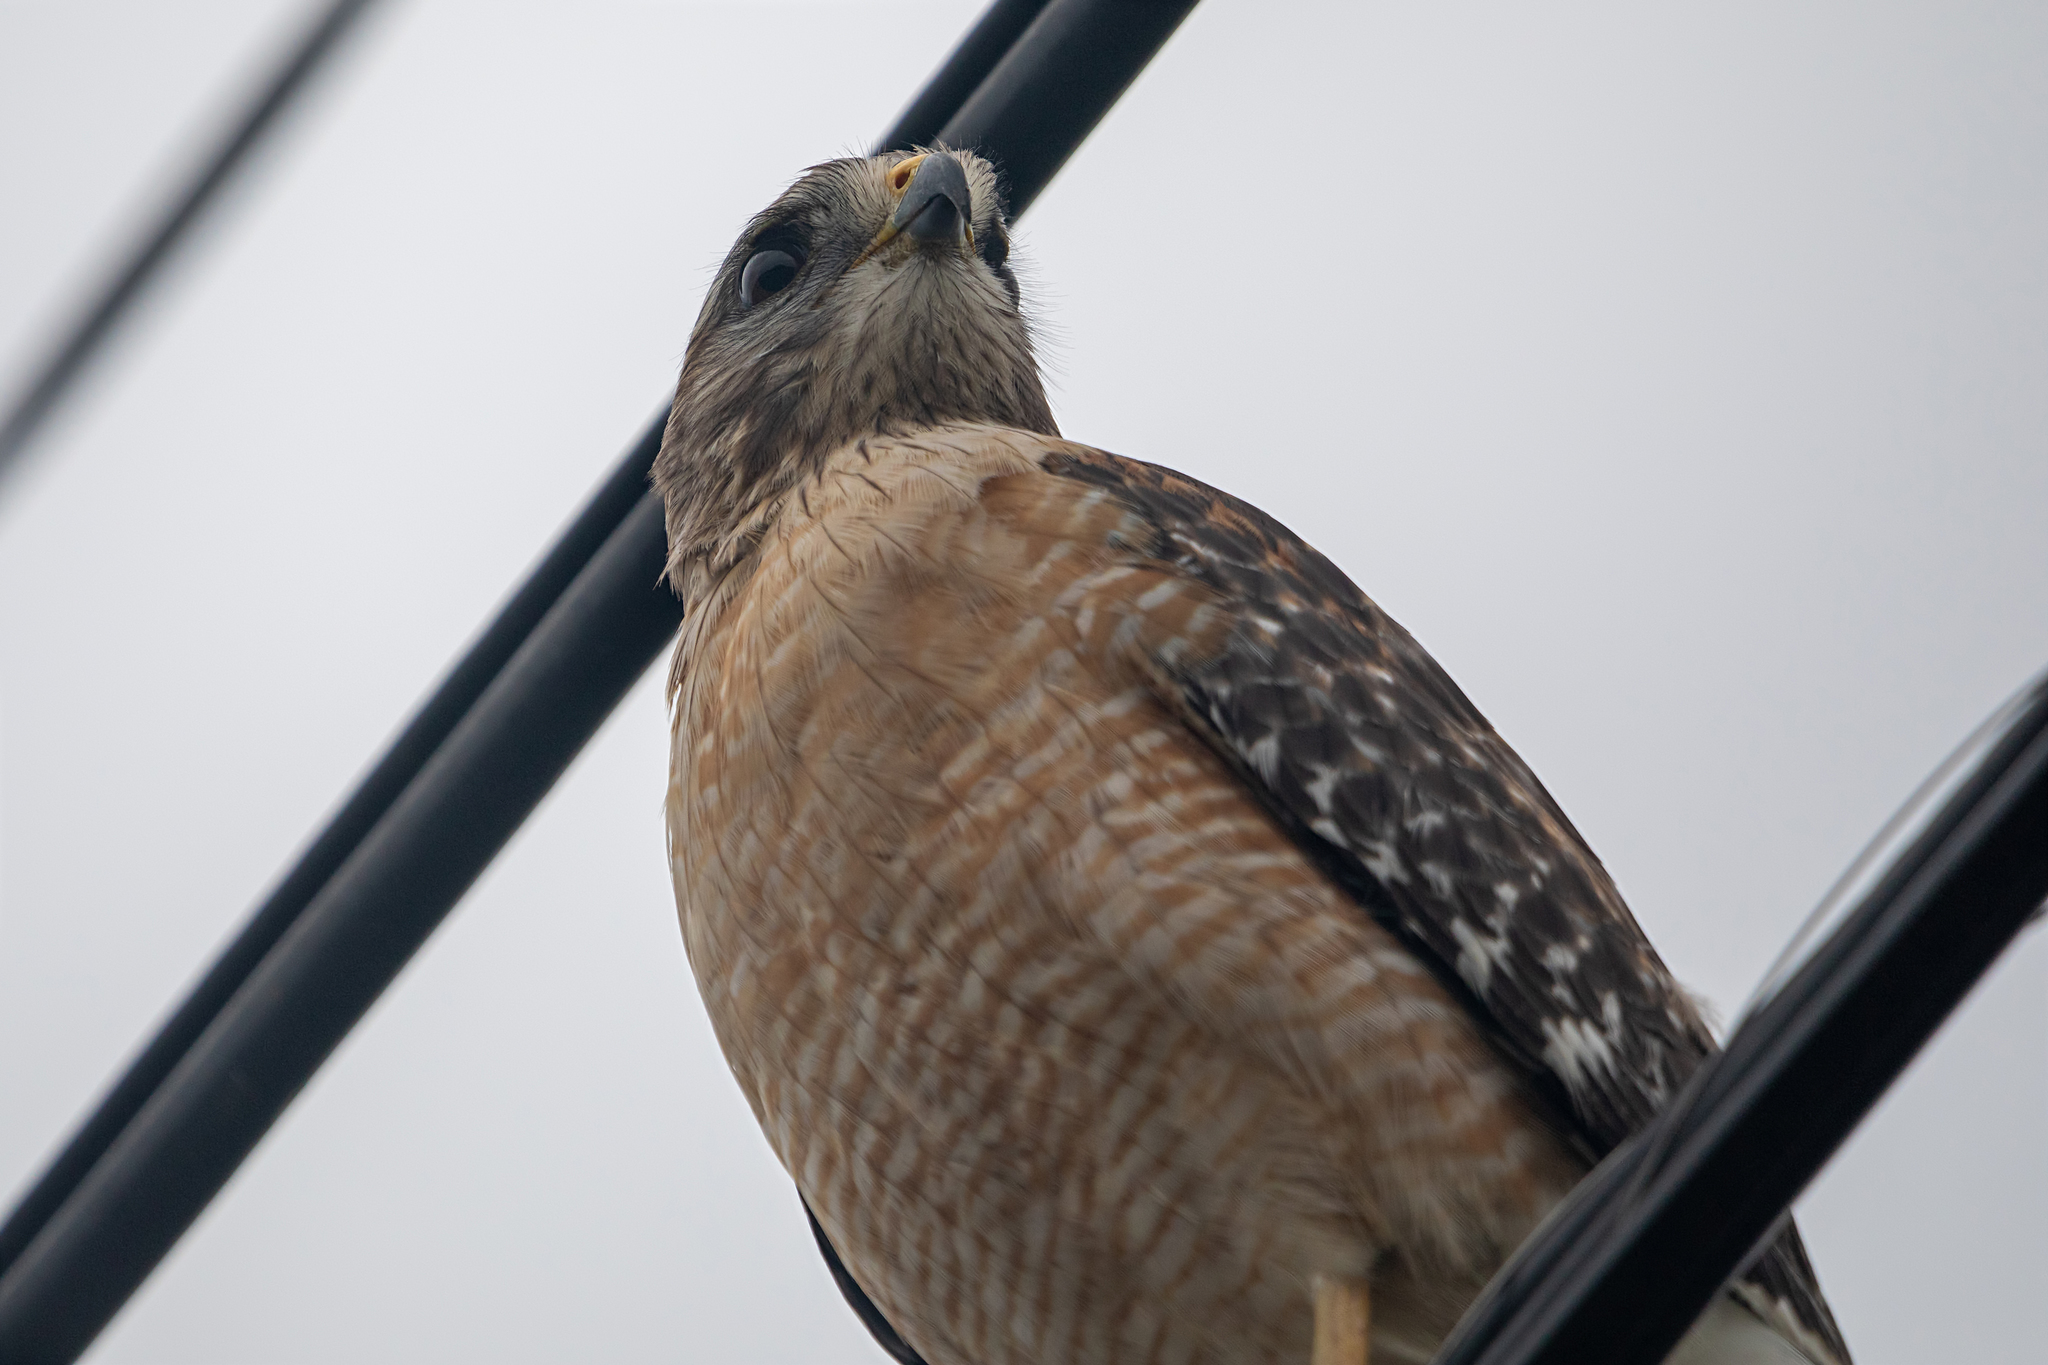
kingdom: Animalia
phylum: Chordata
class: Aves
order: Accipitriformes
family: Accipitridae
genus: Buteo
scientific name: Buteo lineatus
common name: Red-shouldered hawk
